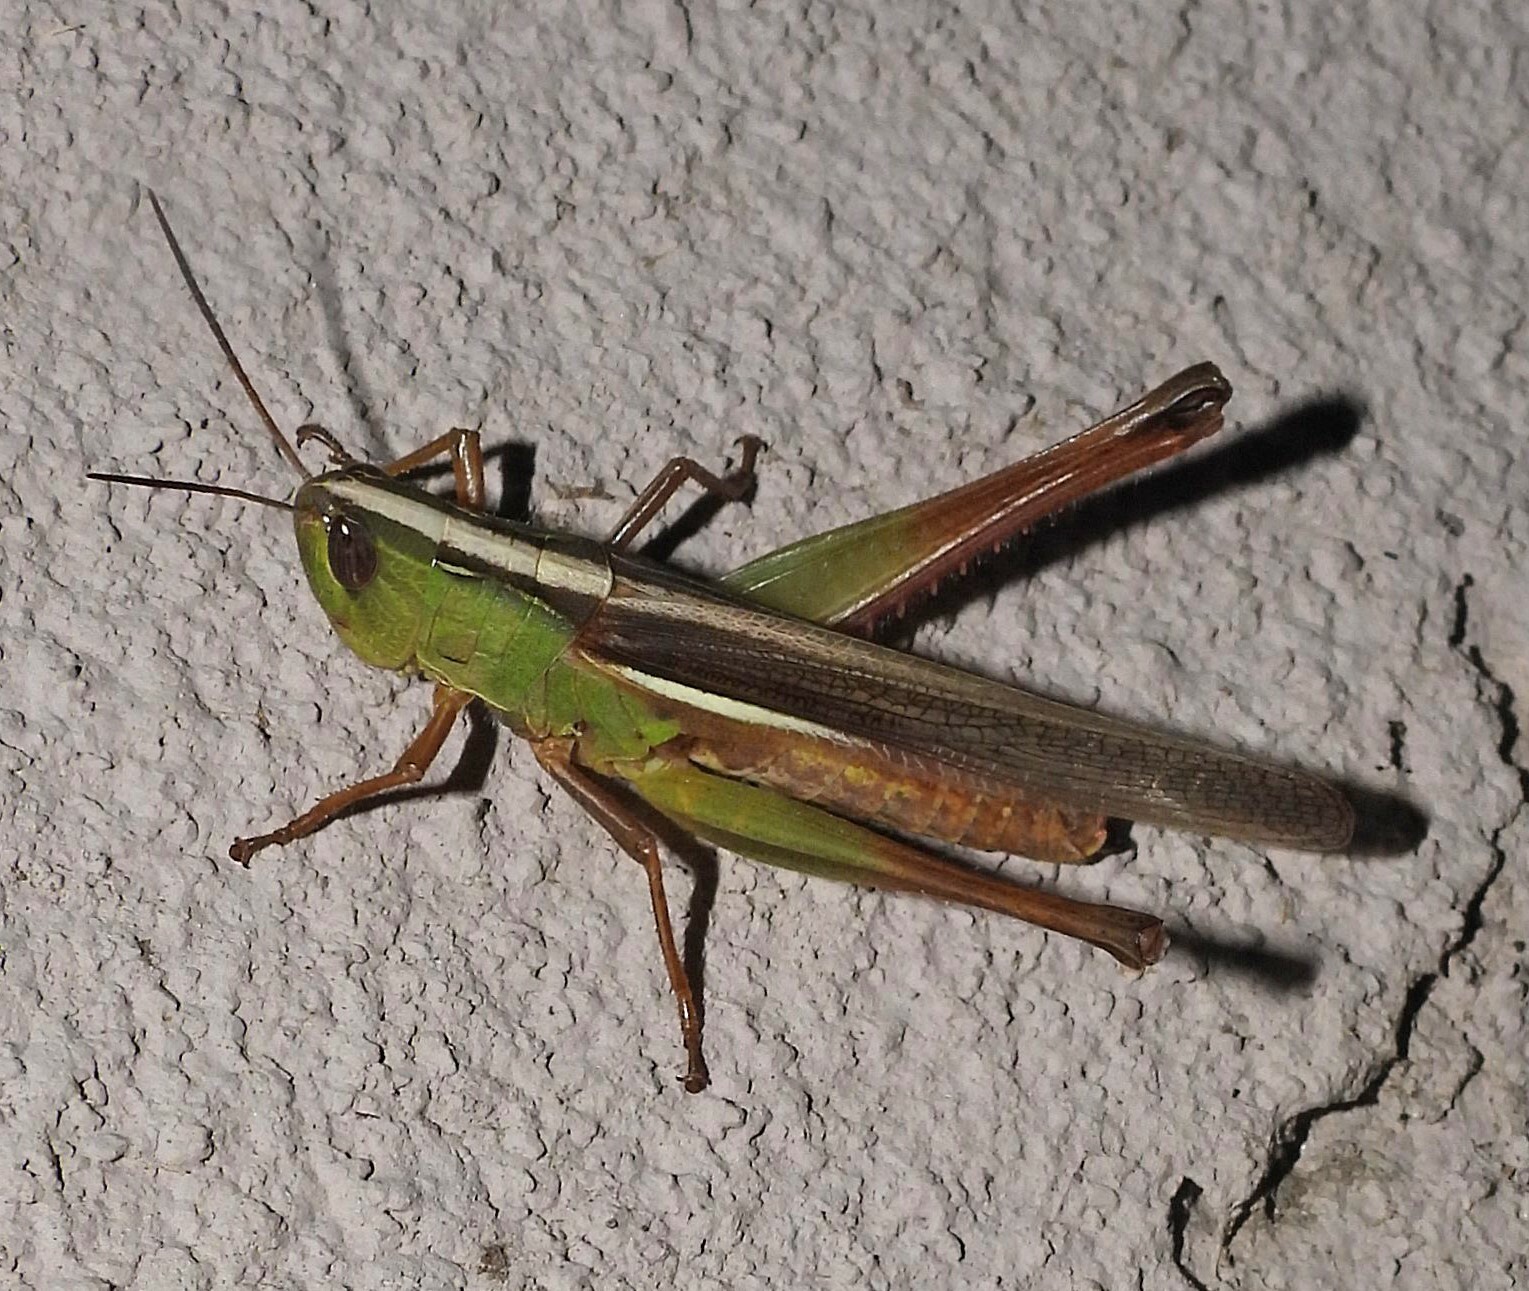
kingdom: Animalia
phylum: Arthropoda
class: Insecta
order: Orthoptera
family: Acrididae
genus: Staurorhectus
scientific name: Staurorhectus longicornis
